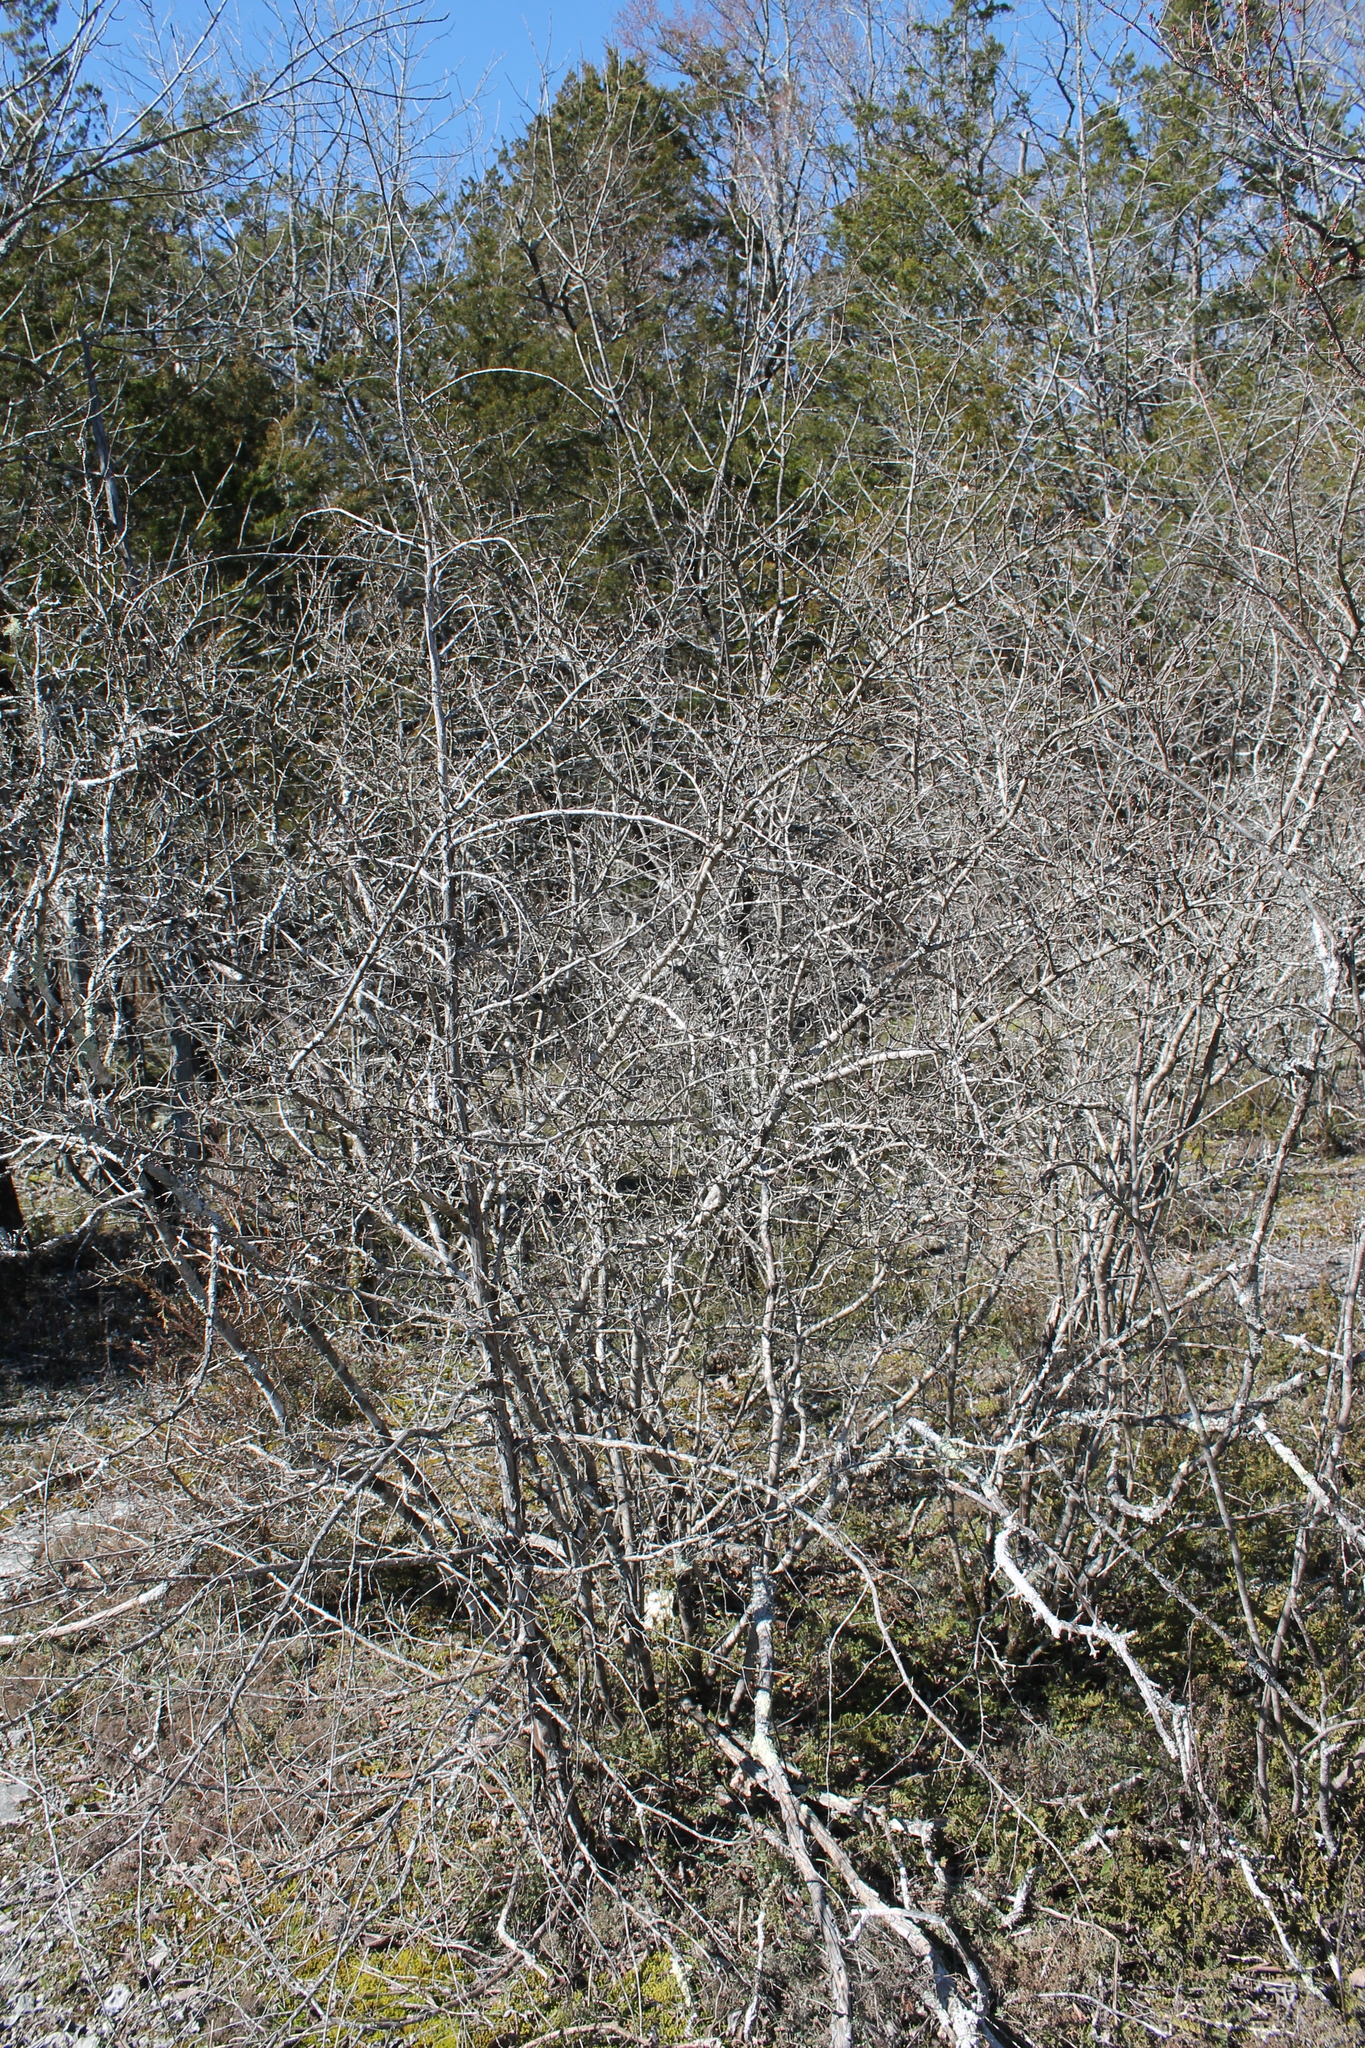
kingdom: Plantae
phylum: Tracheophyta
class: Magnoliopsida
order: Lamiales
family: Oleaceae
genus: Forestiera
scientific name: Forestiera ligustrina
